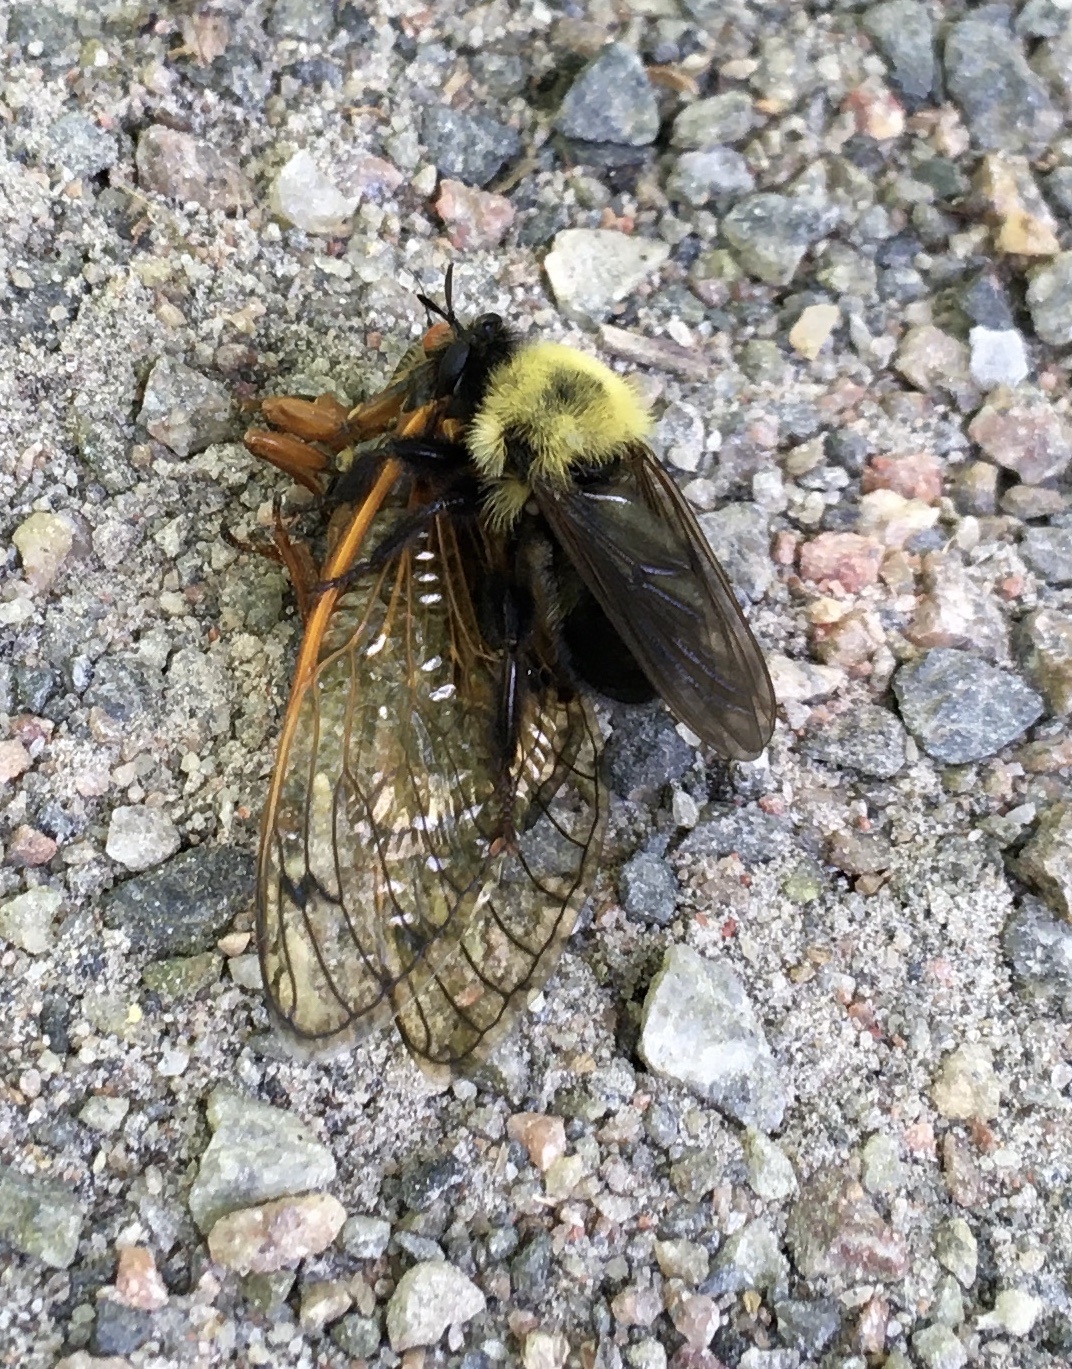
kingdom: Animalia
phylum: Arthropoda
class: Insecta
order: Diptera
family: Asilidae
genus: Laphria
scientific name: Laphria thoracica
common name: Bumble bee mimic robber fly
